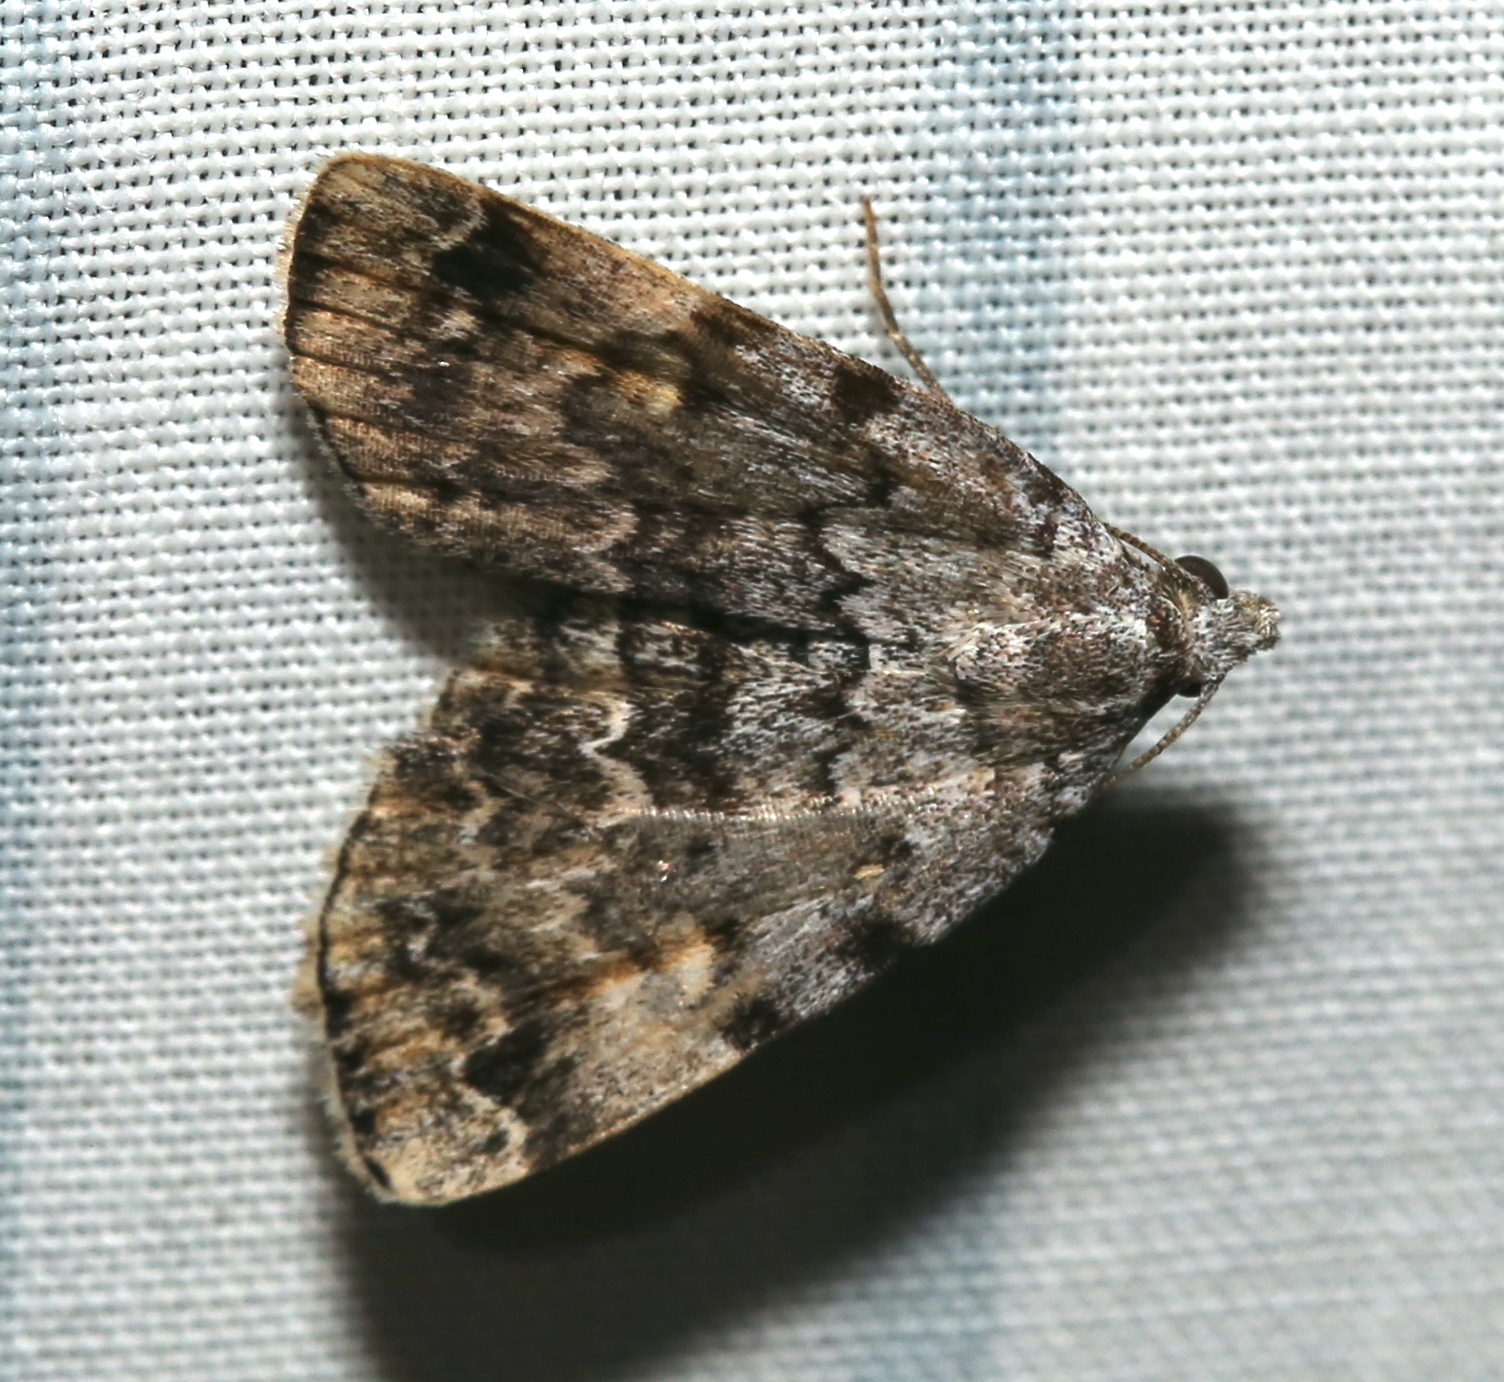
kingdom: Animalia
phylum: Arthropoda
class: Insecta
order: Lepidoptera
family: Erebidae
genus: Idia
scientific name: Idia americalis
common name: American idia moth
